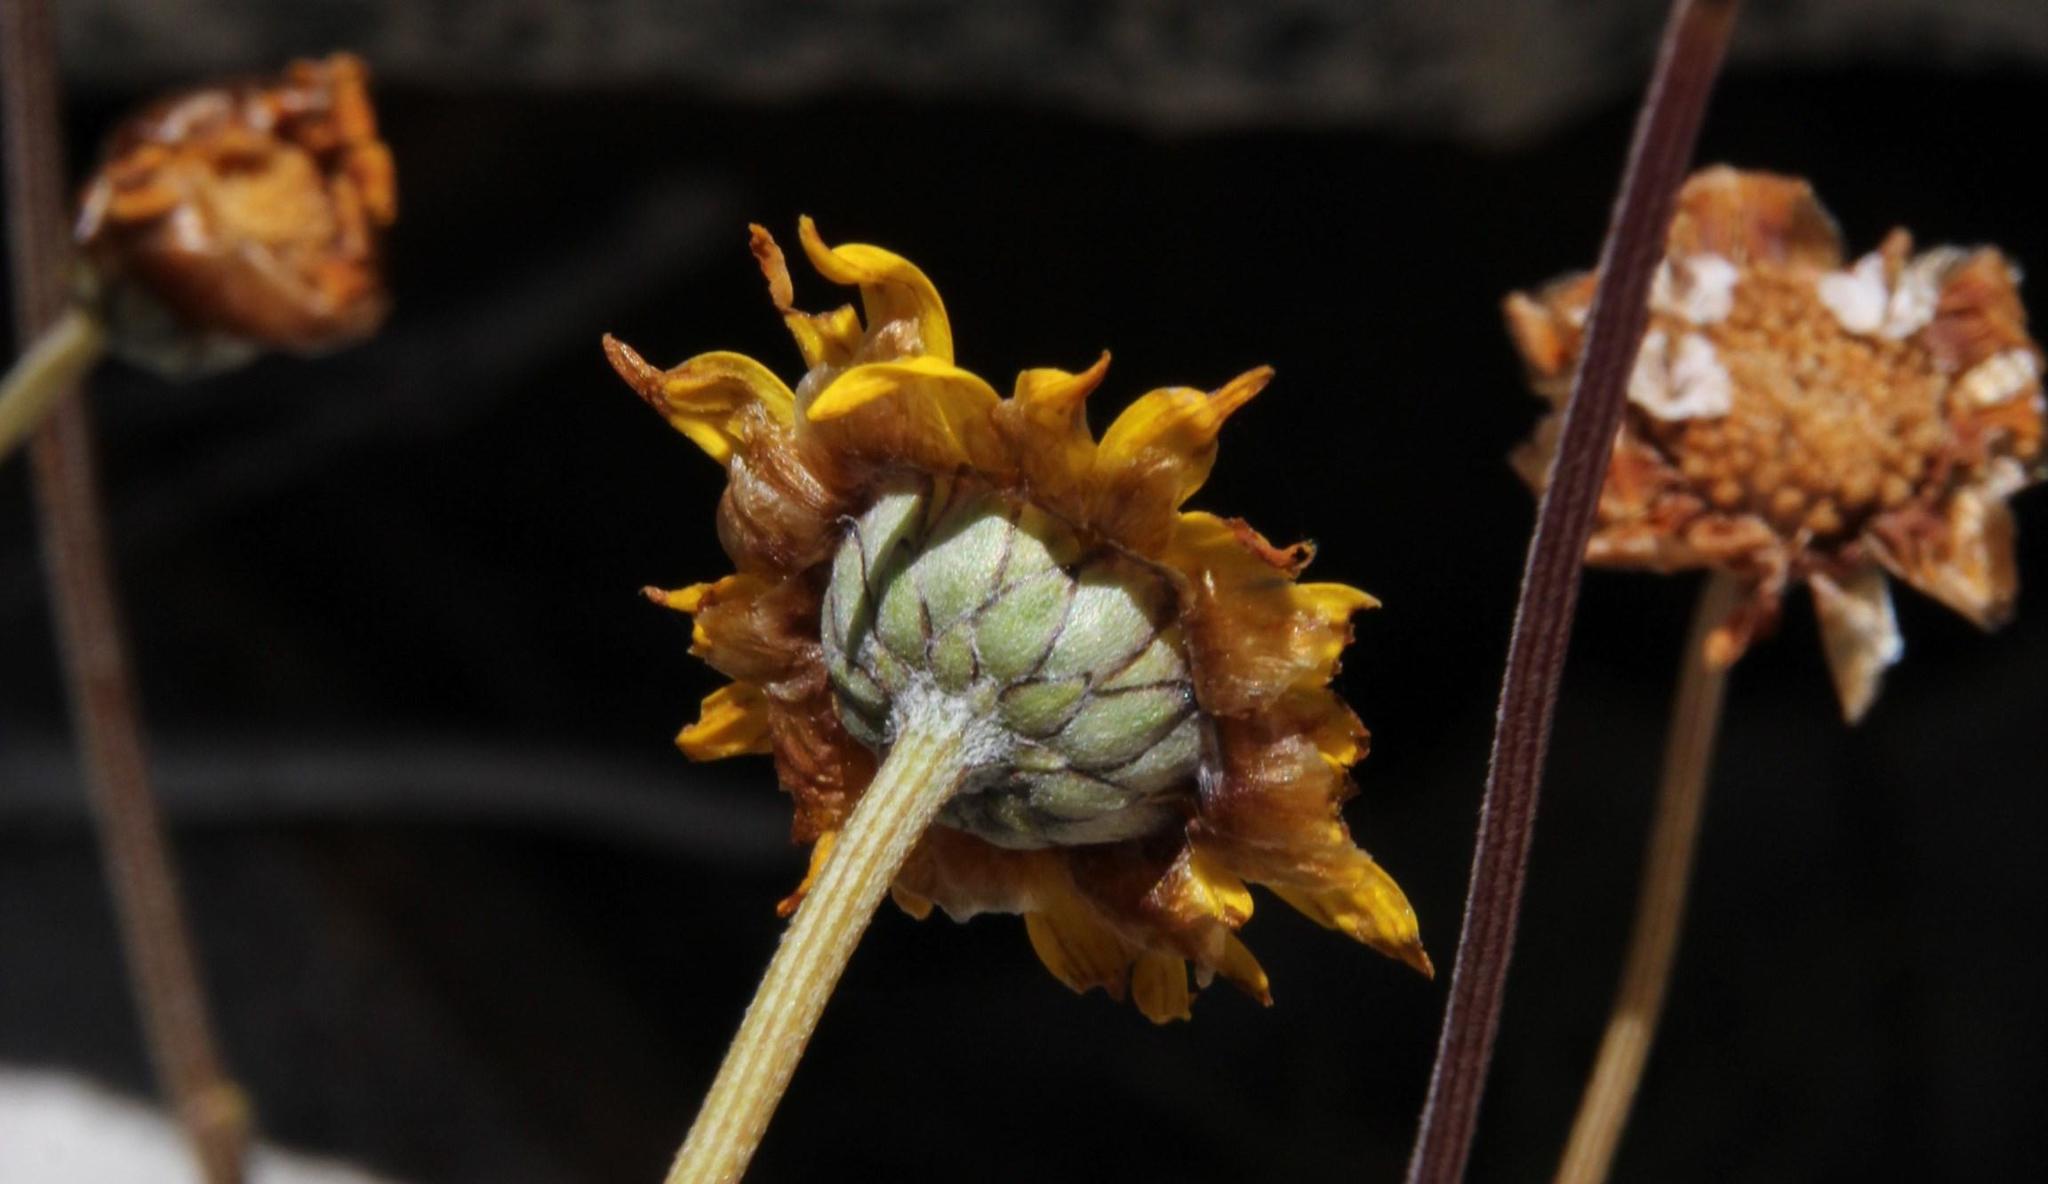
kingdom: Plantae
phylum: Tracheophyta
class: Magnoliopsida
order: Asterales
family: Asteraceae
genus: Ursinia
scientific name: Ursinia sericea
